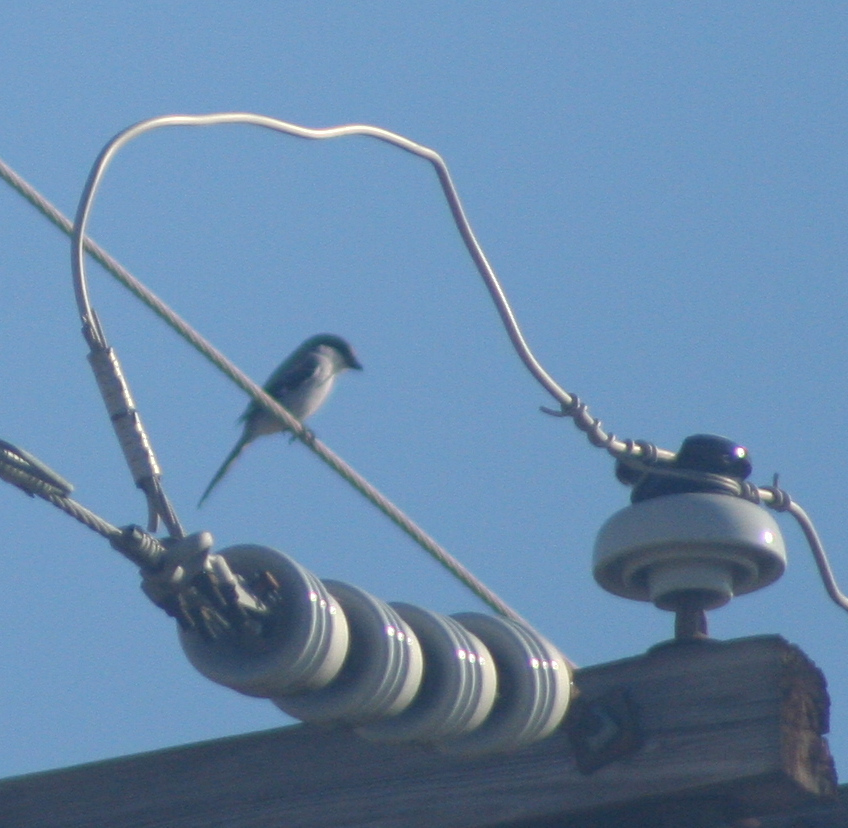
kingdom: Animalia
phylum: Chordata
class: Aves
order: Passeriformes
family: Laniidae
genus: Lanius
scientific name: Lanius ludovicianus
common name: Loggerhead shrike
